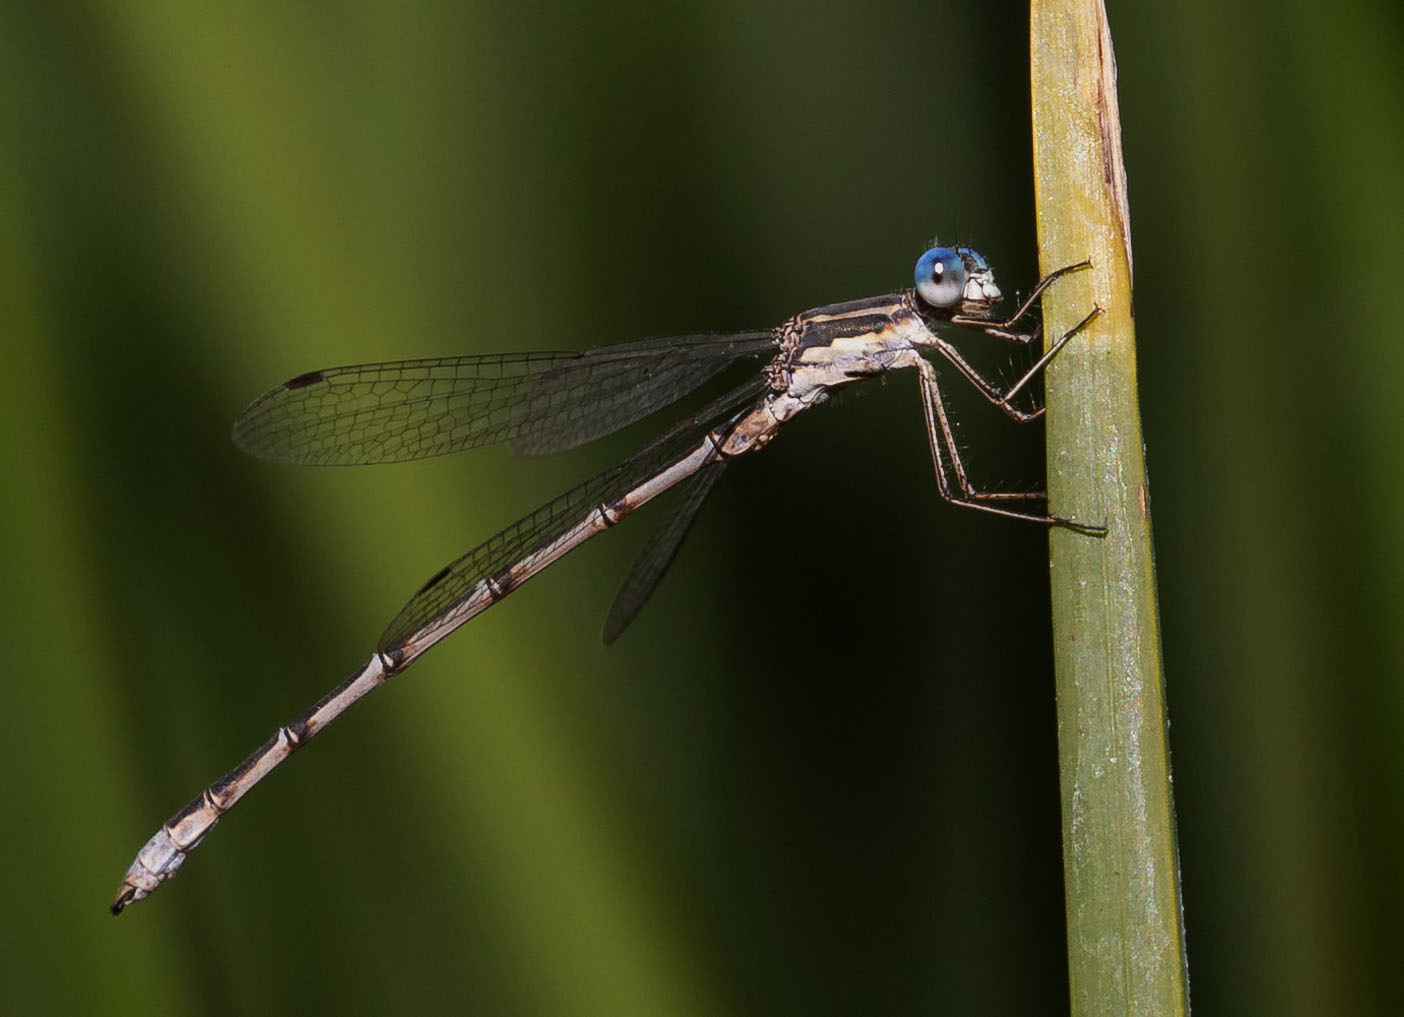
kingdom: Animalia
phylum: Arthropoda
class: Insecta
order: Odonata
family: Lestidae
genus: Lestes
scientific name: Lestes congener
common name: Spotted spreadwing
